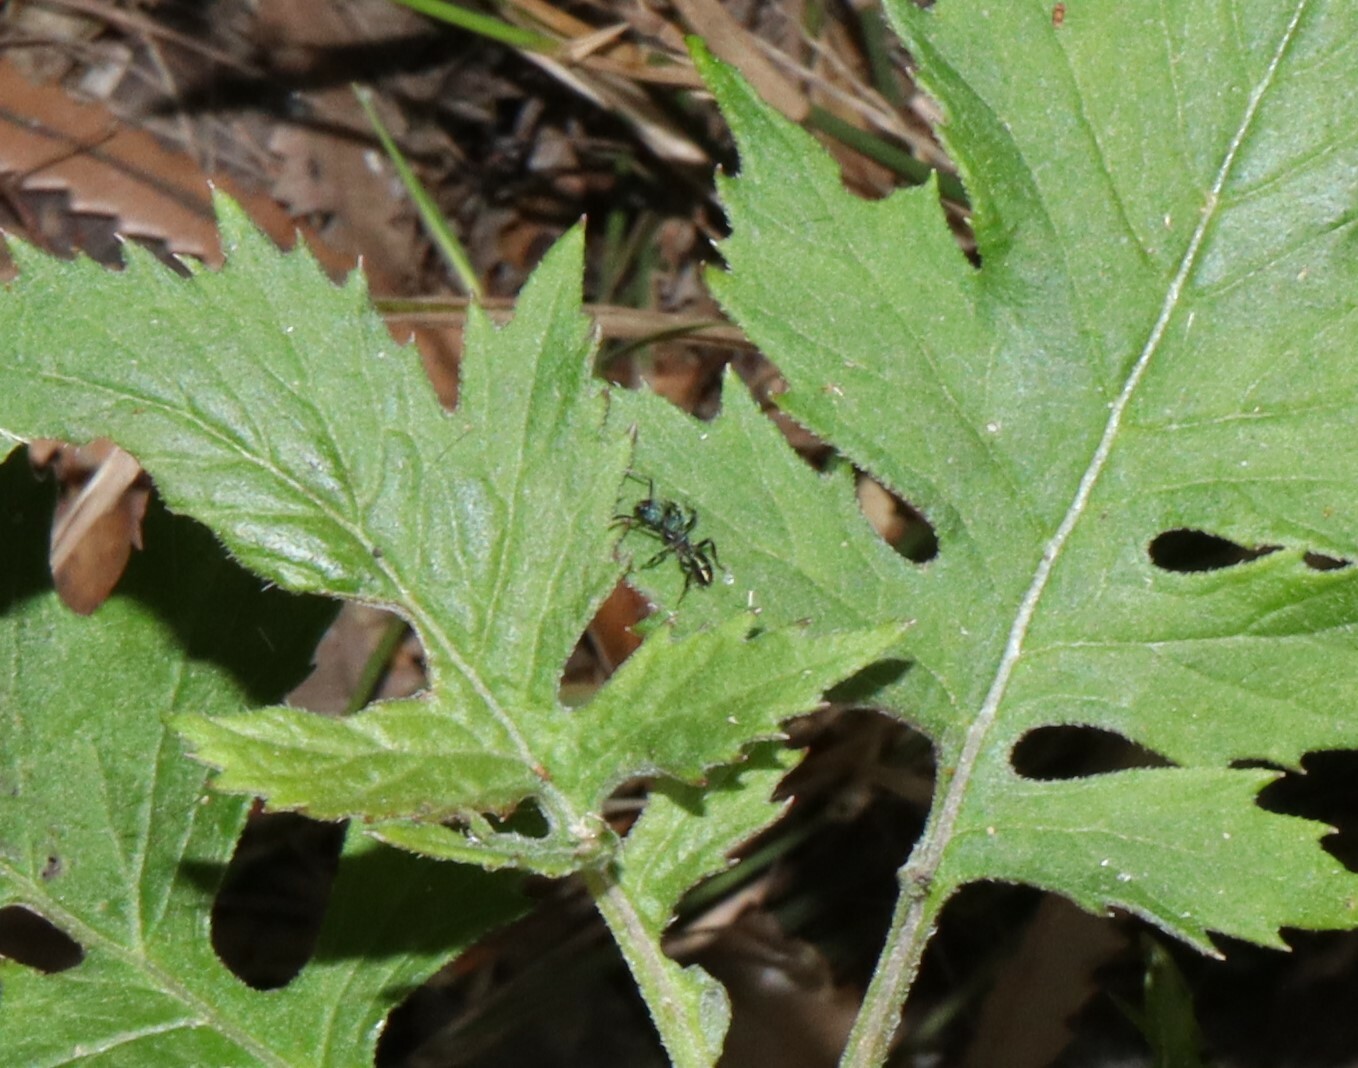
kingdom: Animalia
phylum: Arthropoda
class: Insecta
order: Hymenoptera
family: Formicidae
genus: Rhytidoponera
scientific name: Rhytidoponera metallica
